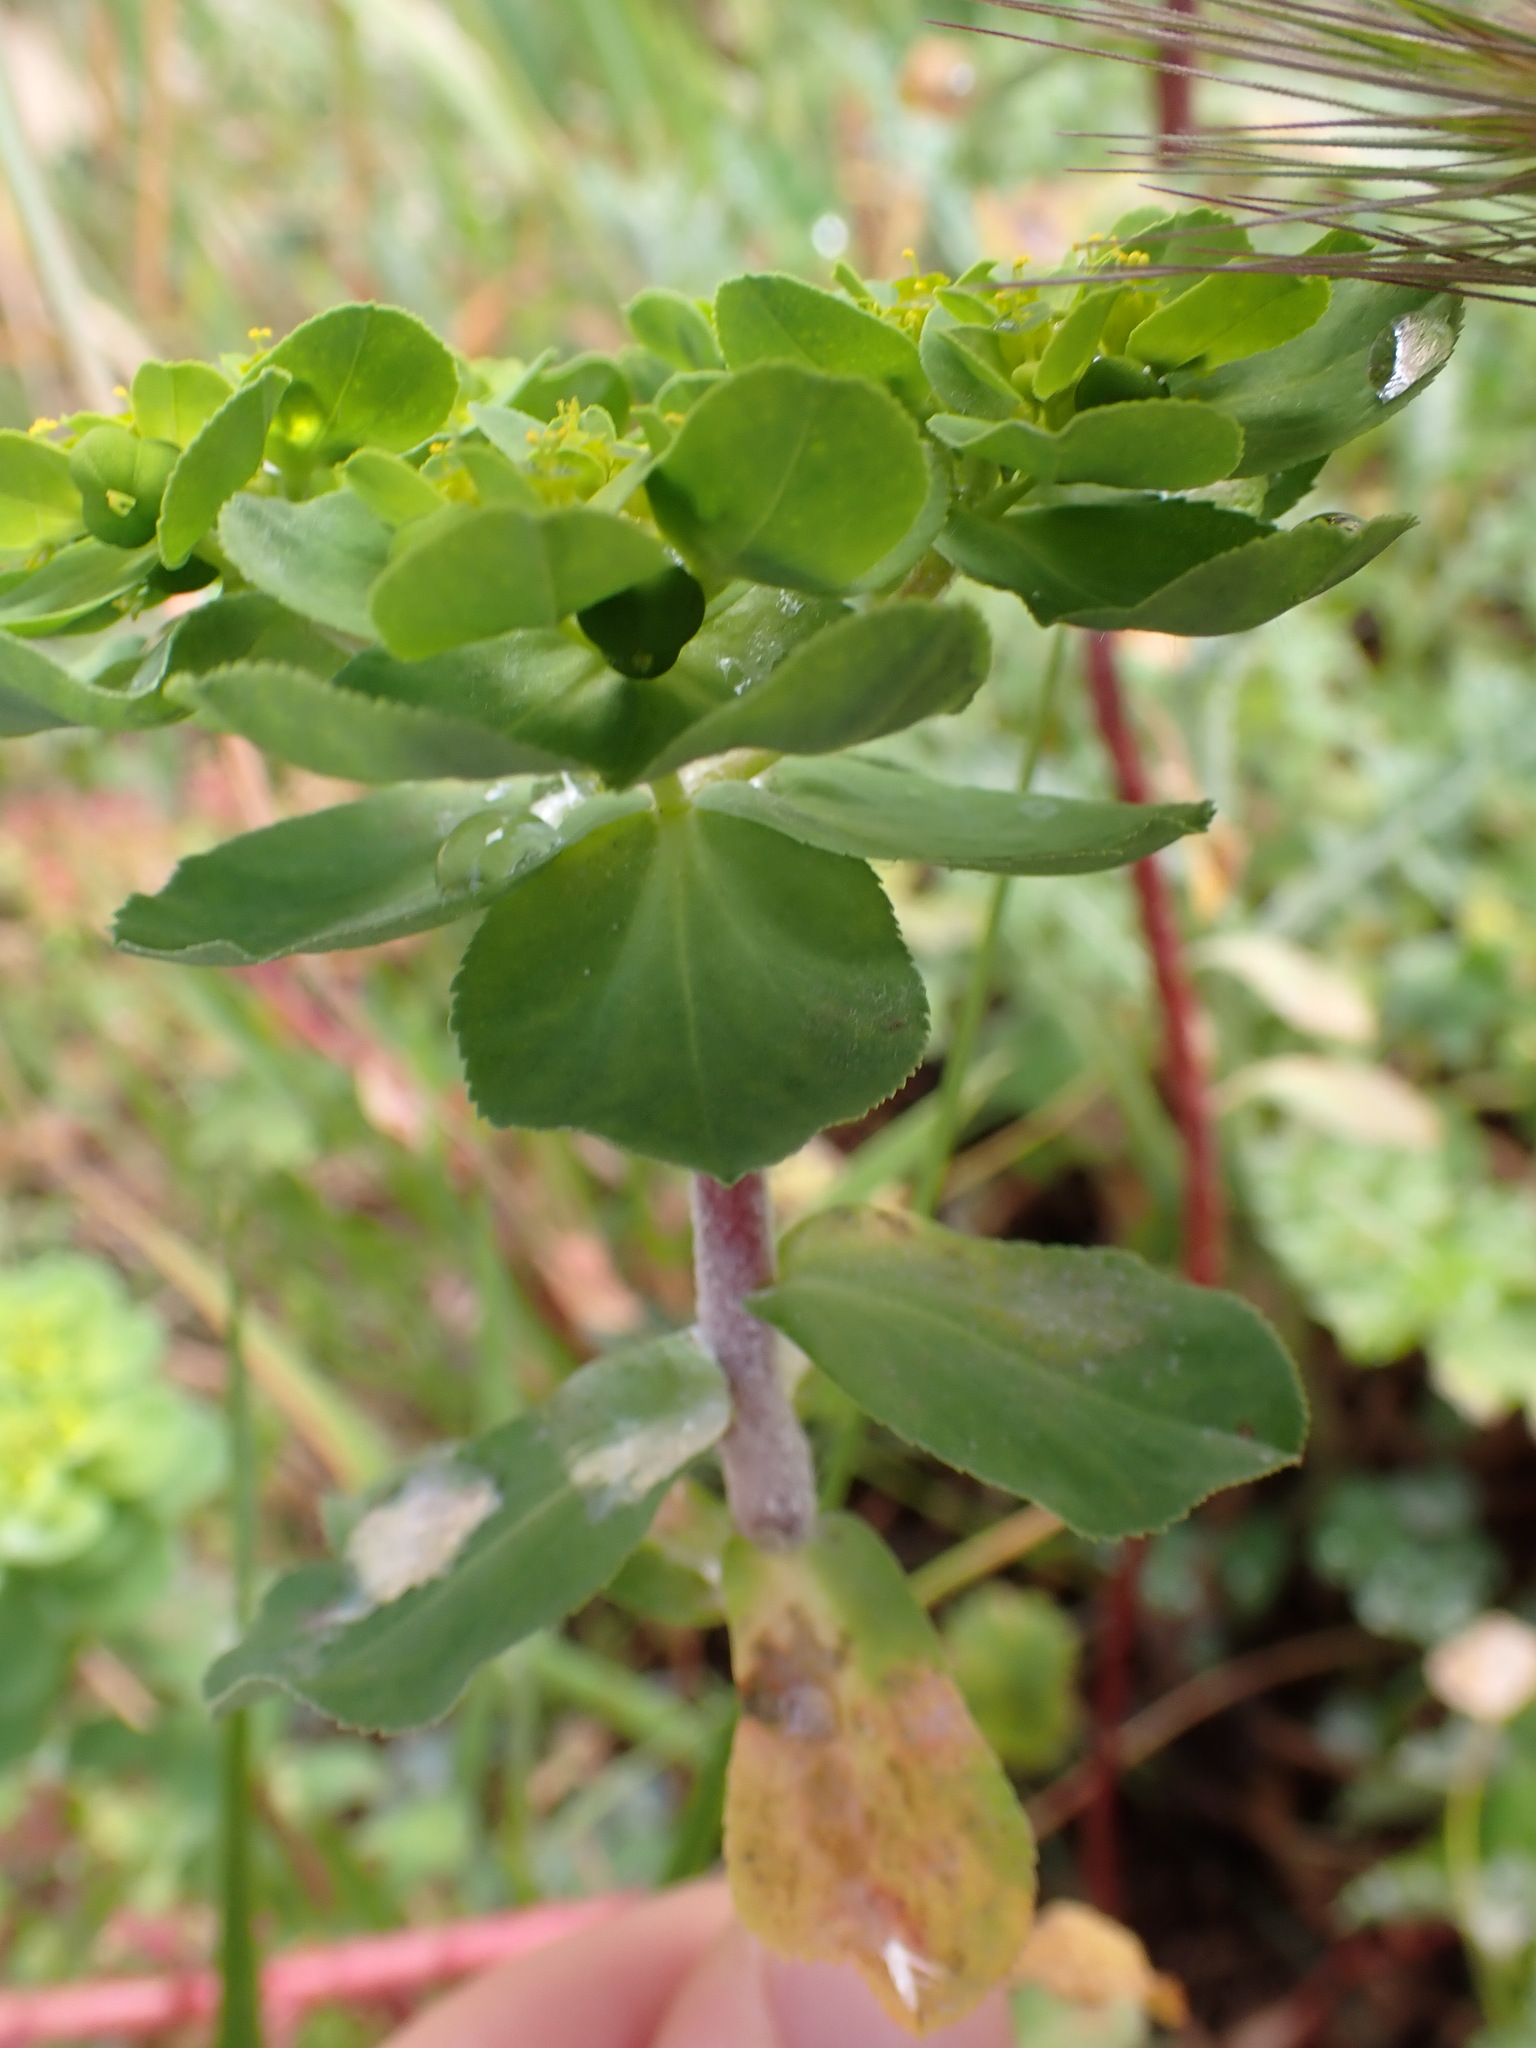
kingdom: Plantae
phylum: Tracheophyta
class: Magnoliopsida
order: Malpighiales
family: Euphorbiaceae
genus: Euphorbia
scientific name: Euphorbia helioscopia
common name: Sun spurge
